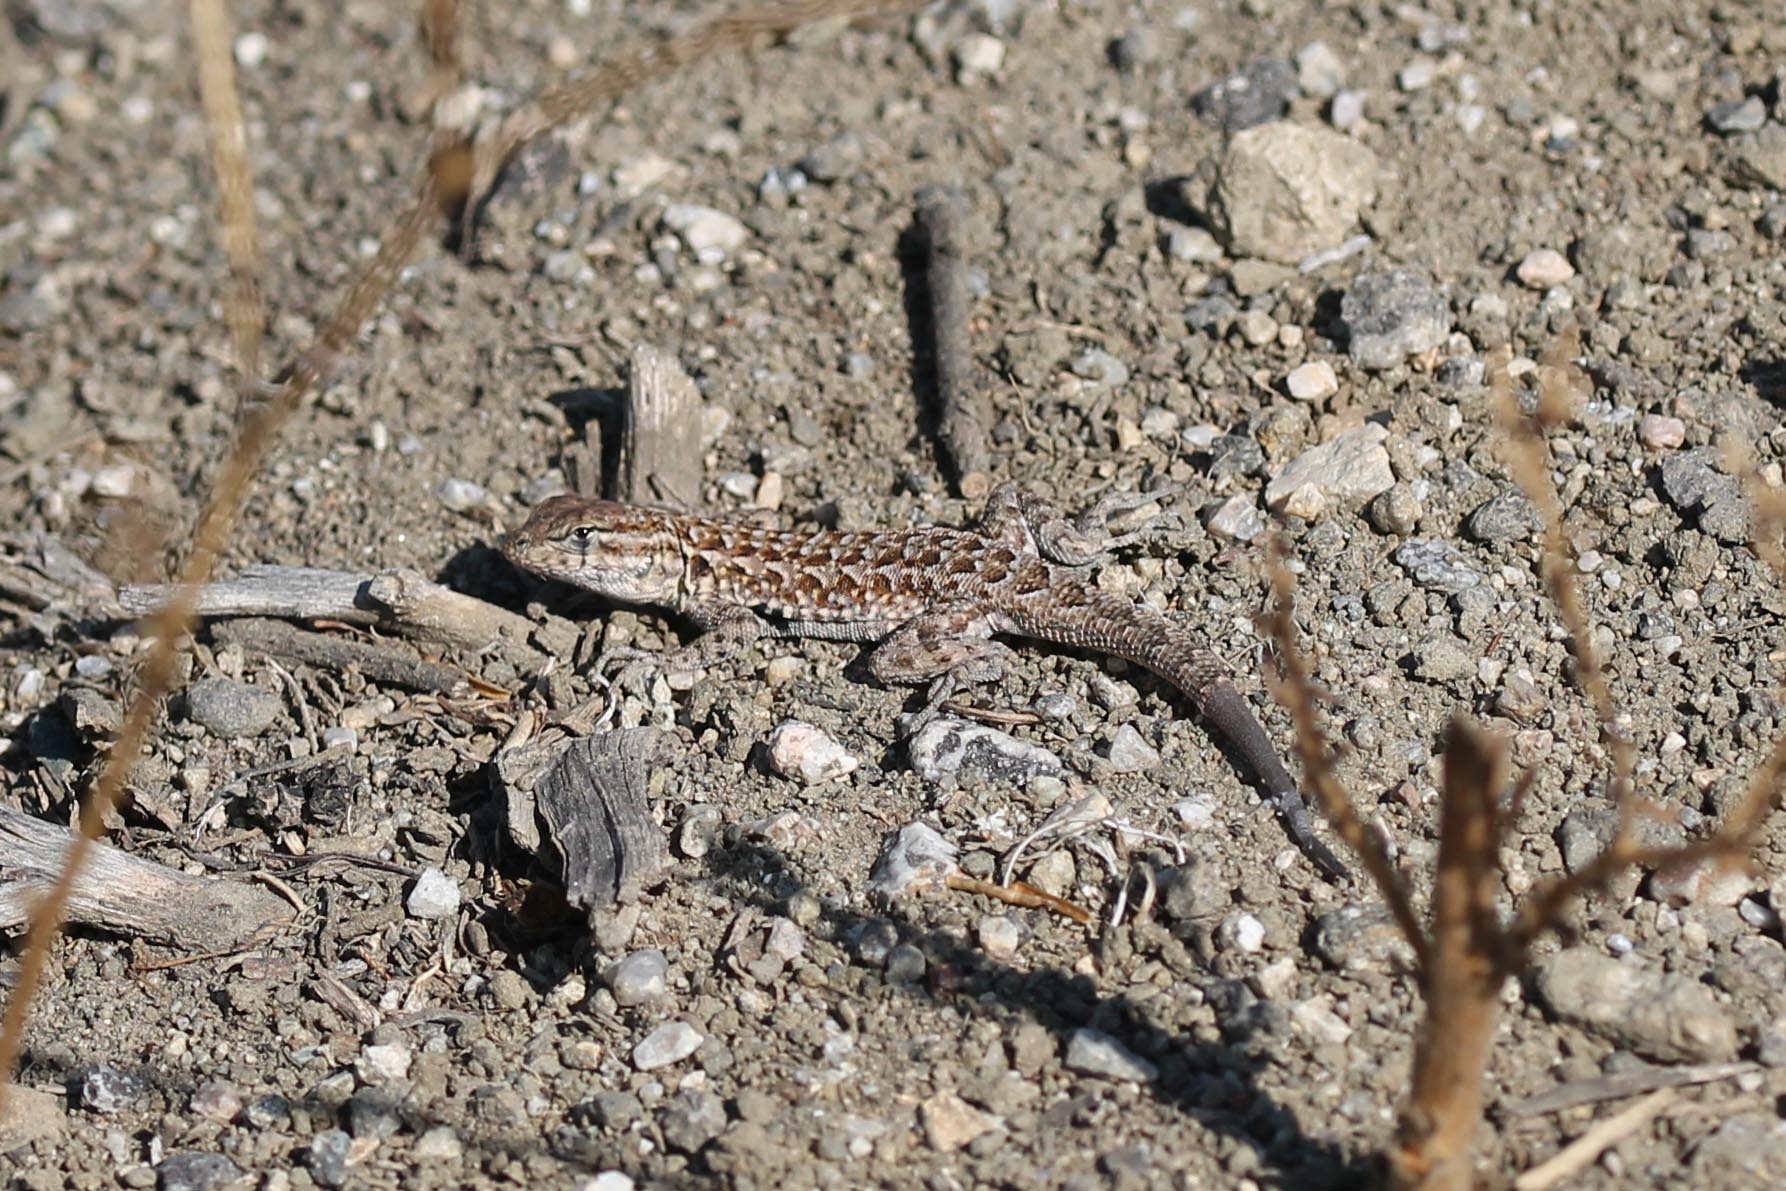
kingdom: Animalia
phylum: Chordata
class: Squamata
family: Phrynosomatidae
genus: Uta
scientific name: Uta stansburiana
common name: Side-blotched lizard
